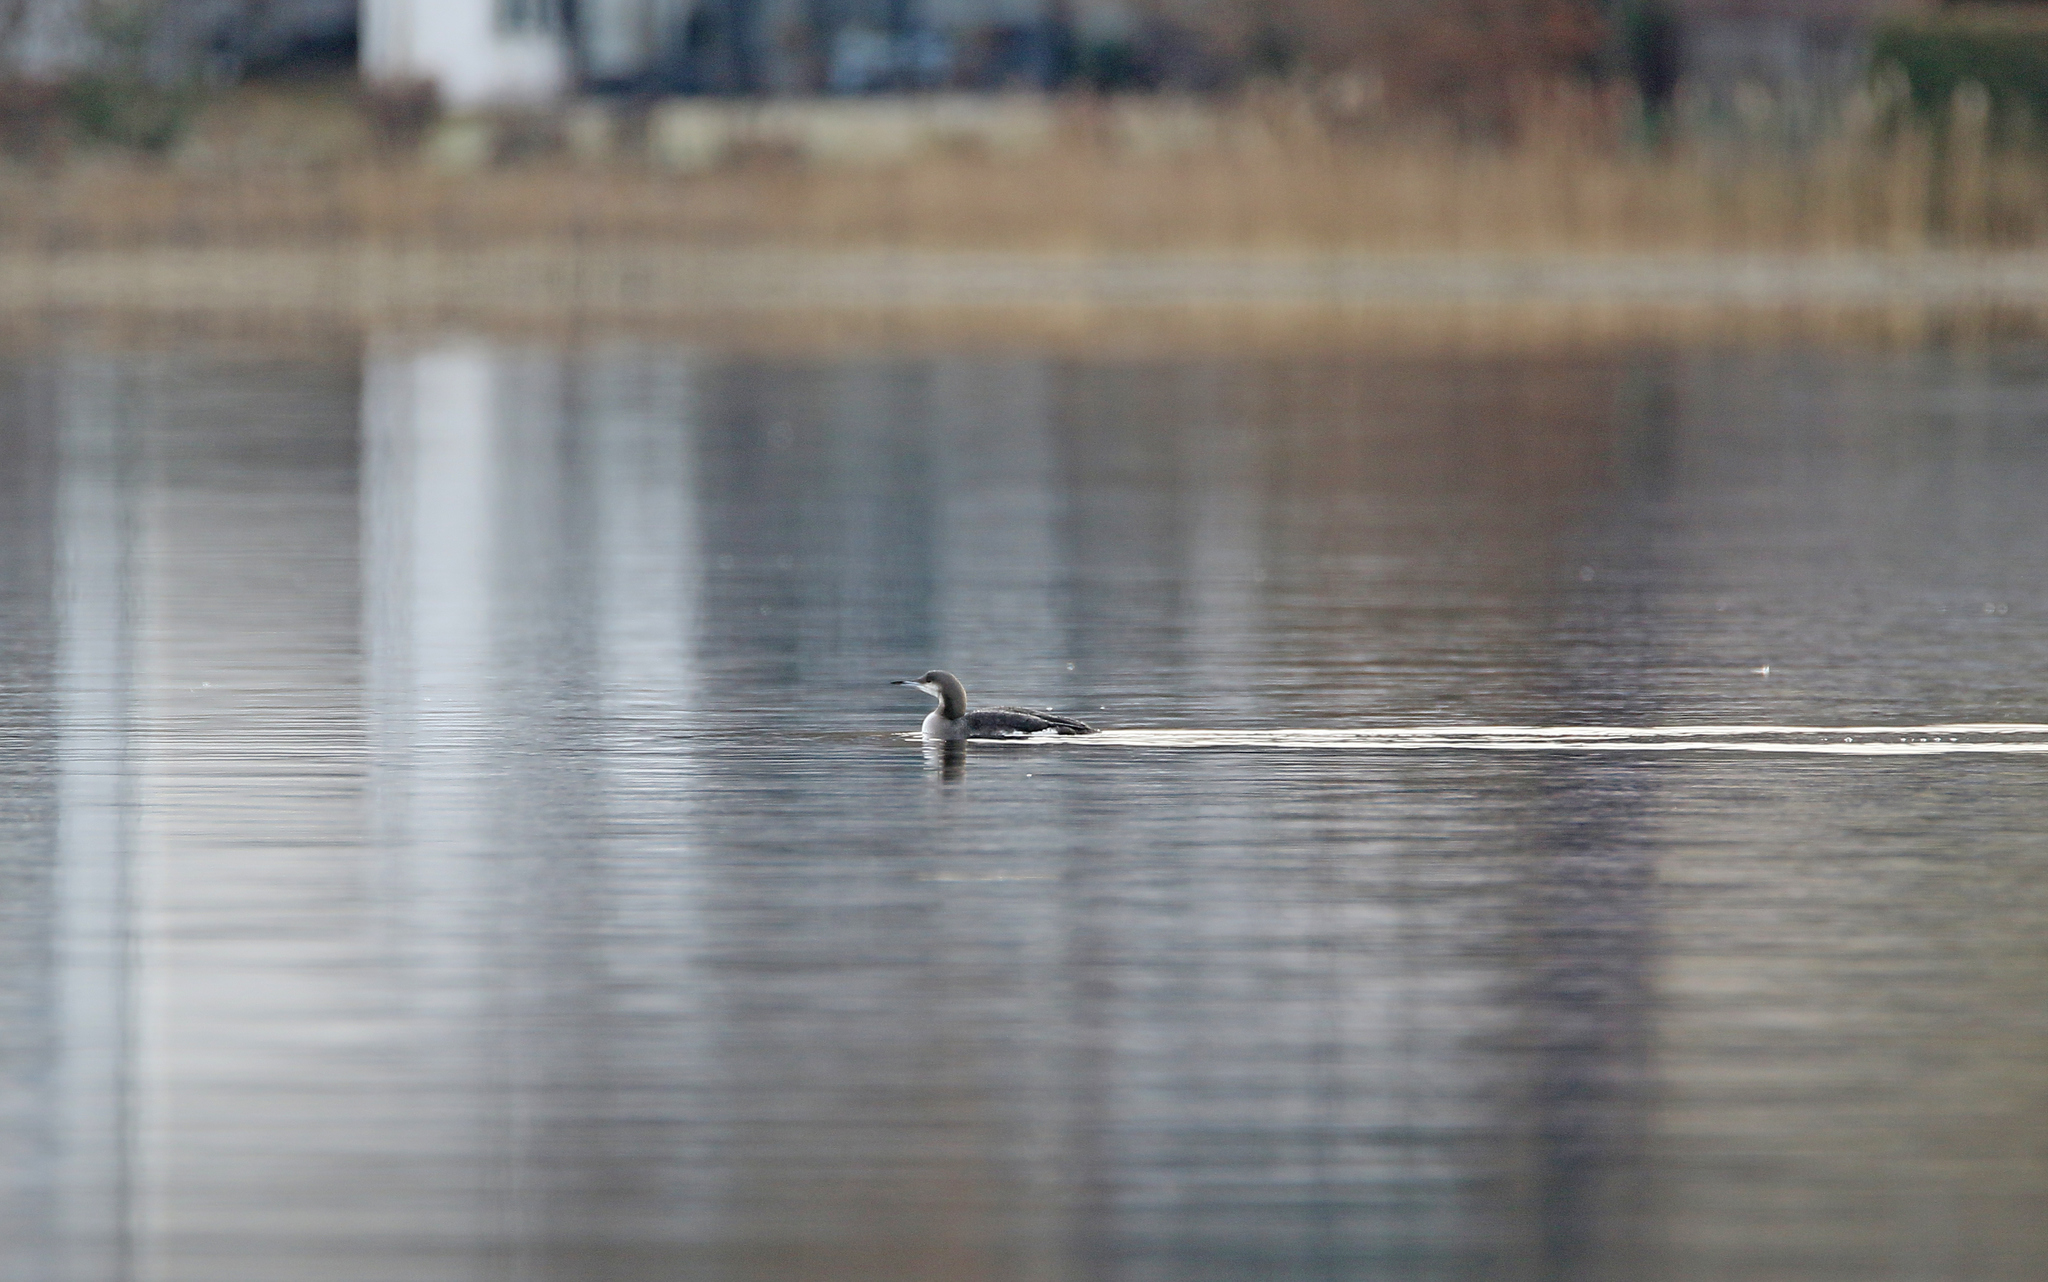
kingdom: Animalia
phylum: Chordata
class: Aves
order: Gaviiformes
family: Gaviidae
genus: Gavia
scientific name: Gavia arctica
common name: Black-throated loon
